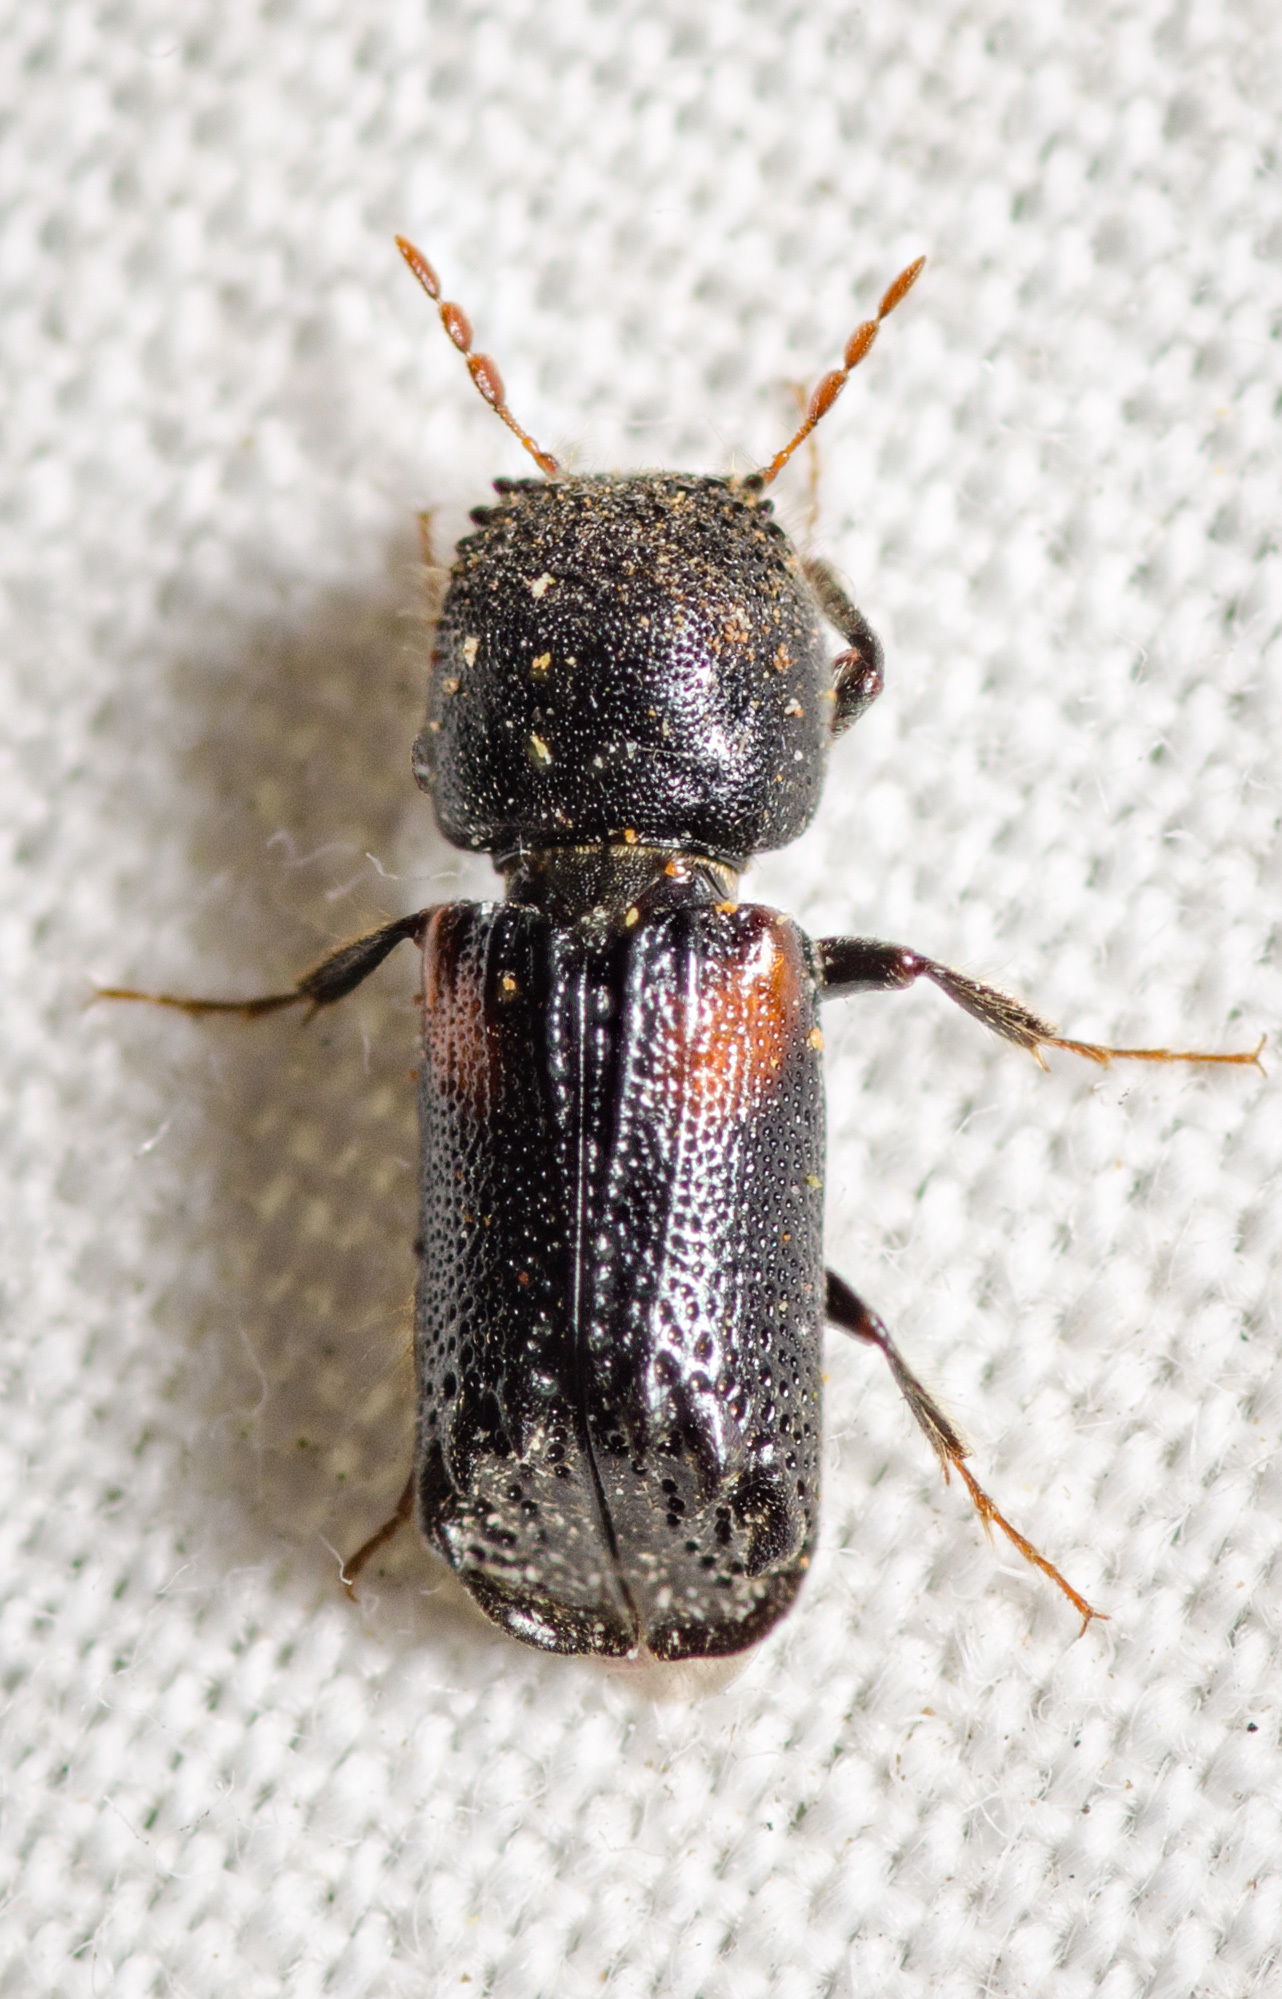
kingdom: Animalia
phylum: Arthropoda
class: Insecta
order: Coleoptera
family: Bostrichidae
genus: Xylobiops
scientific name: Xylobiops basilaris
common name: Red-shouldered bostrichid
